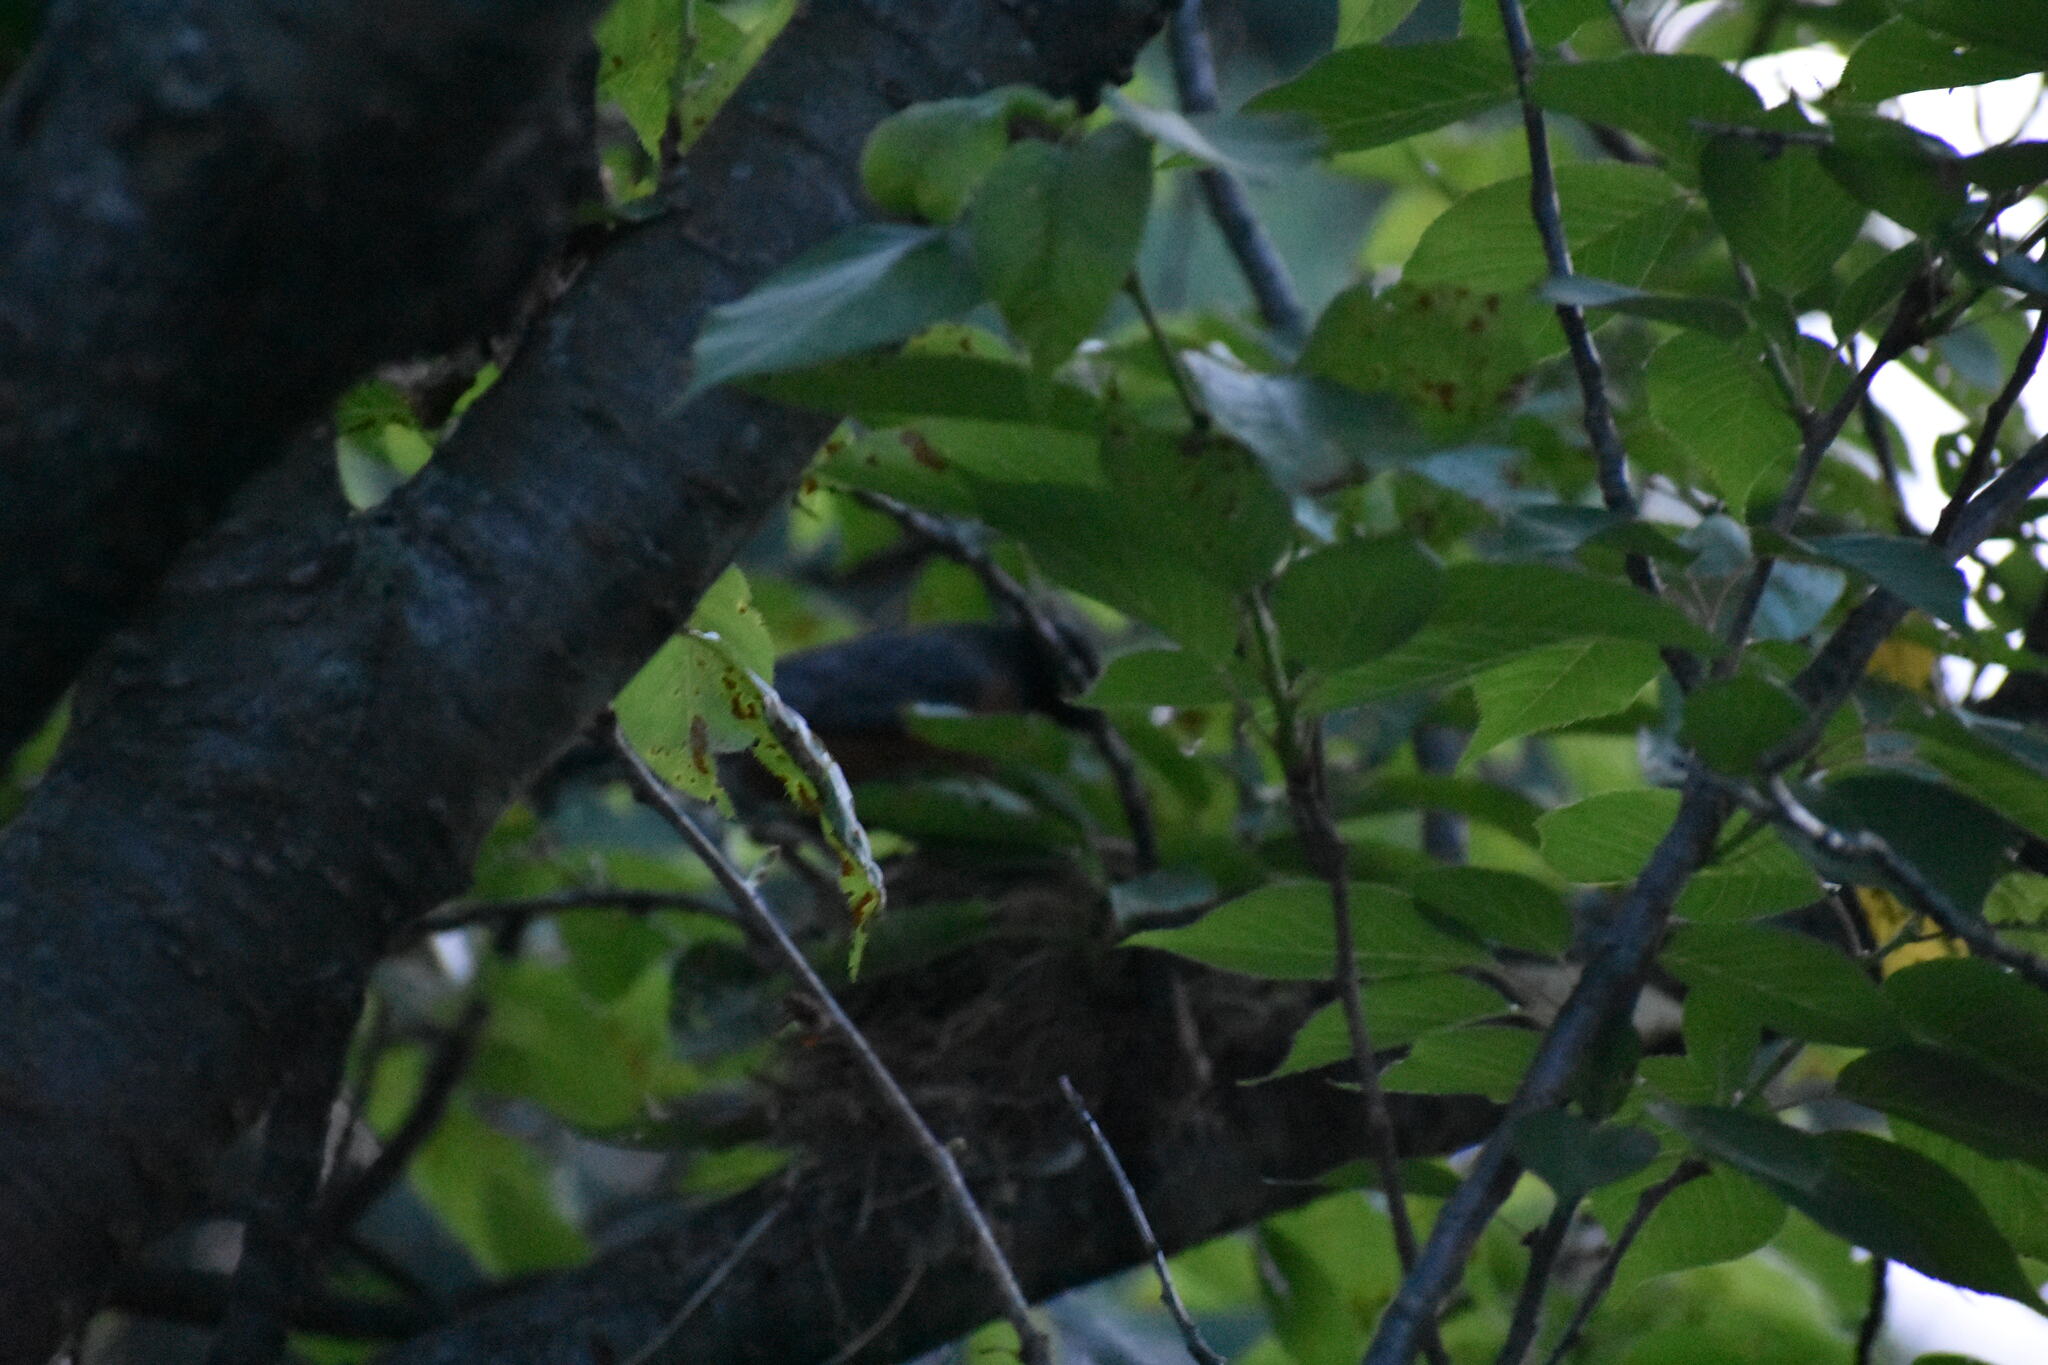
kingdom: Animalia
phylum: Chordata
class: Aves
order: Passeriformes
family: Turdidae
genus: Turdus
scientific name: Turdus migratorius
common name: American robin
